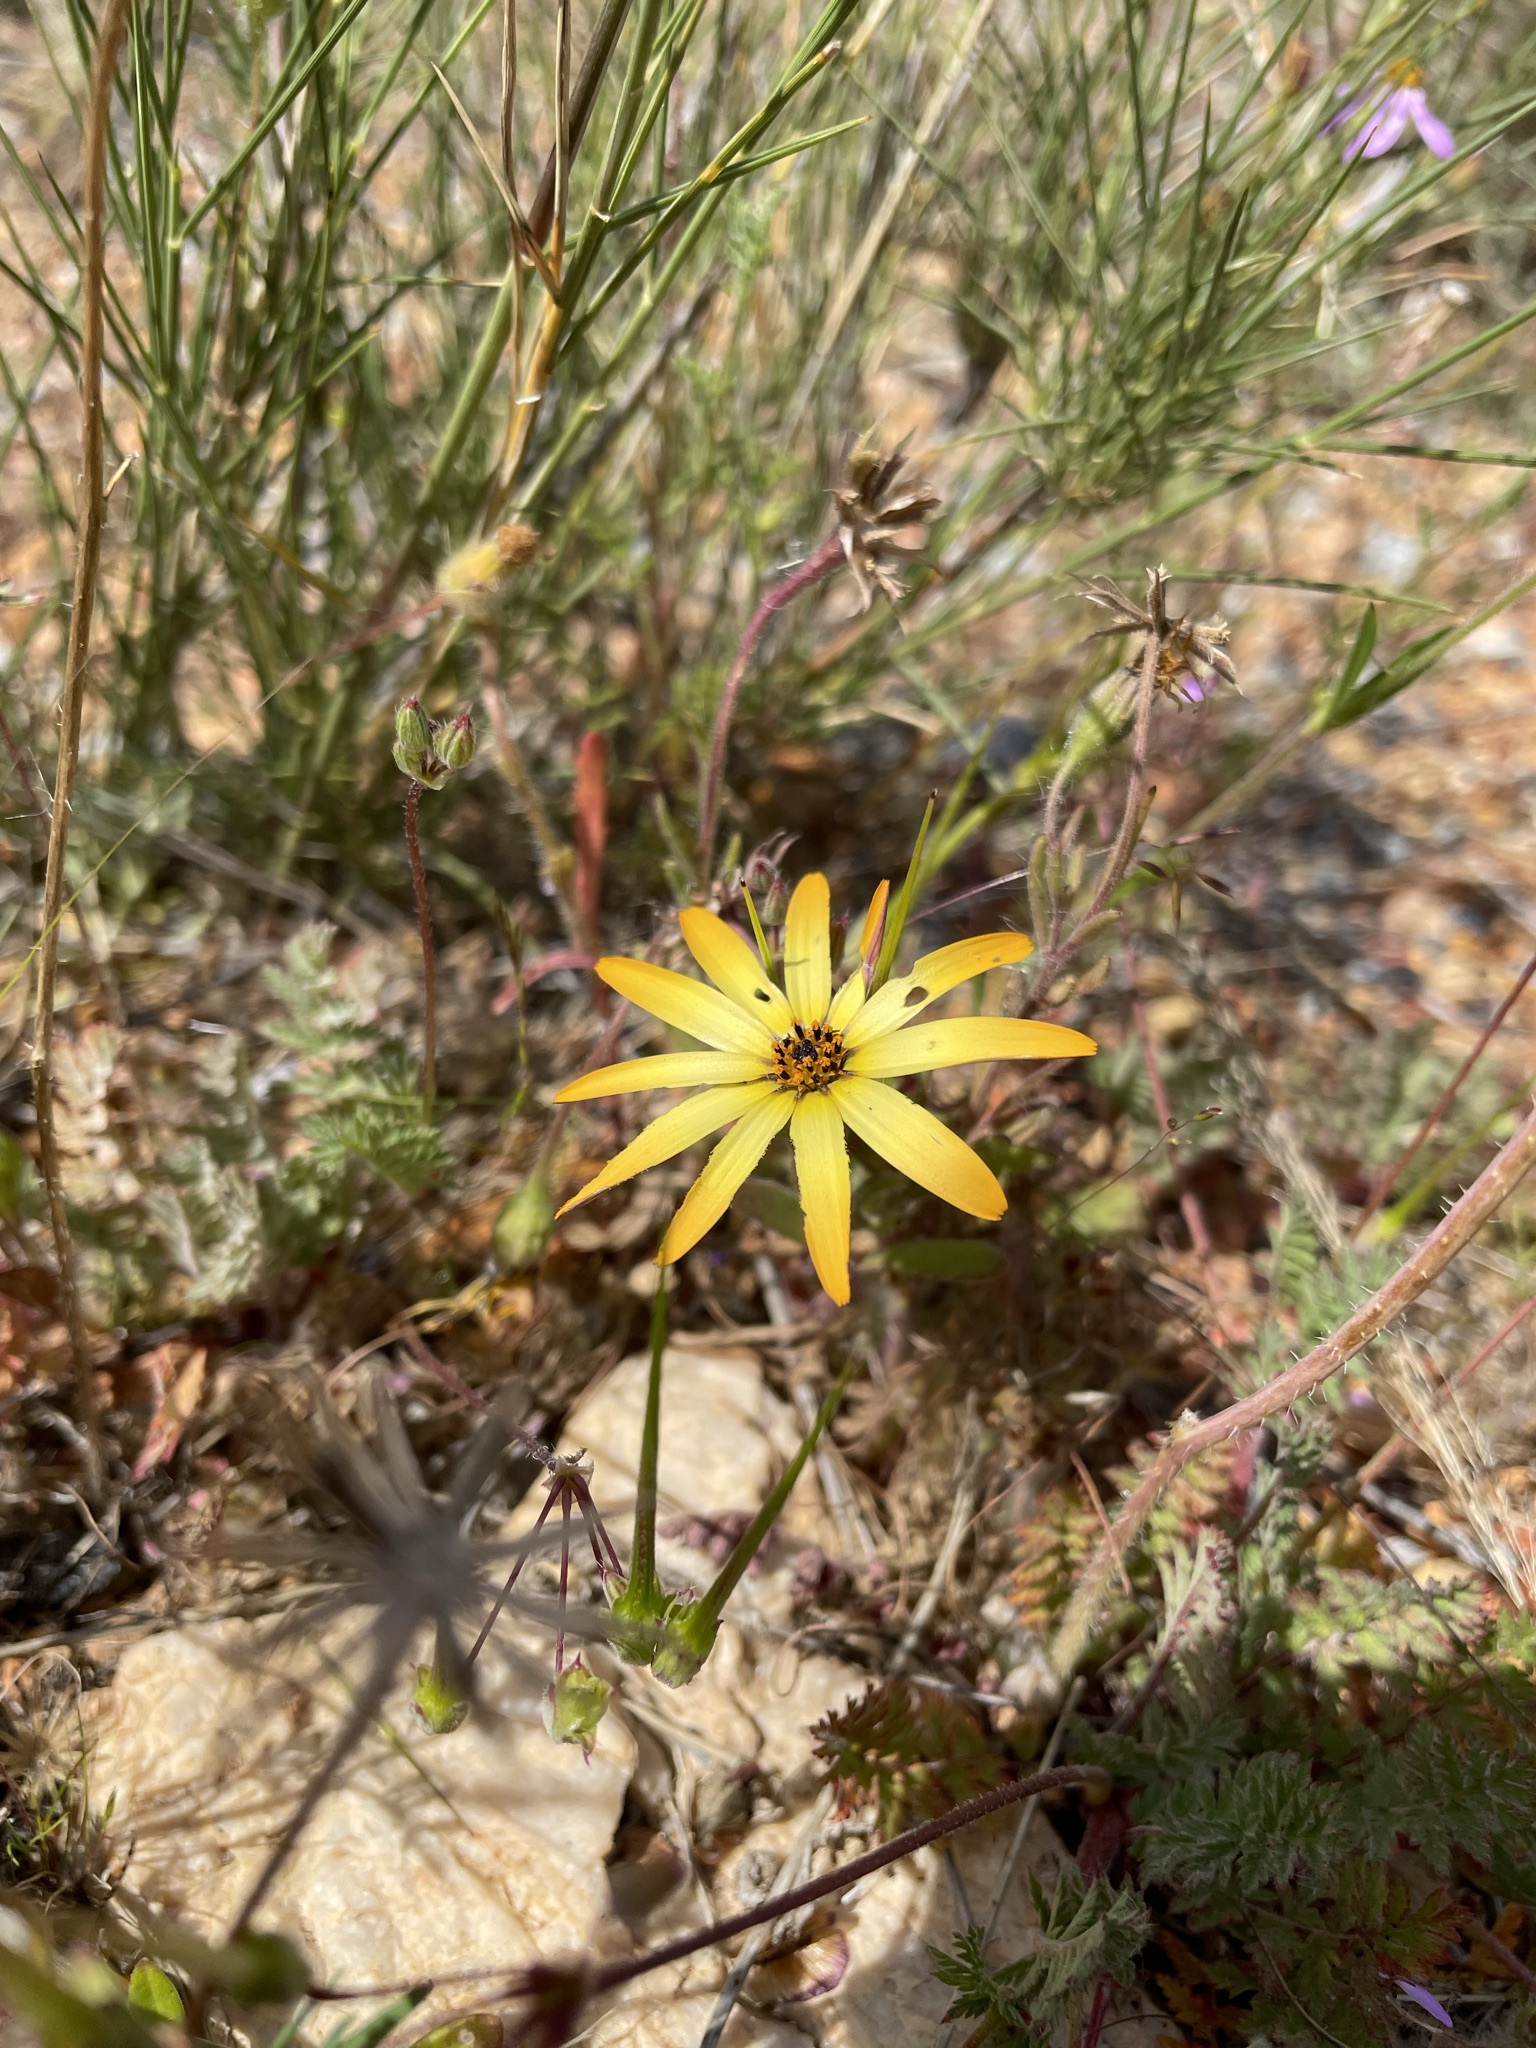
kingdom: Plantae
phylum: Tracheophyta
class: Magnoliopsida
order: Asterales
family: Asteraceae
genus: Dimorphotheca
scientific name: Dimorphotheca sinuata
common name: Glandular cape marigold
